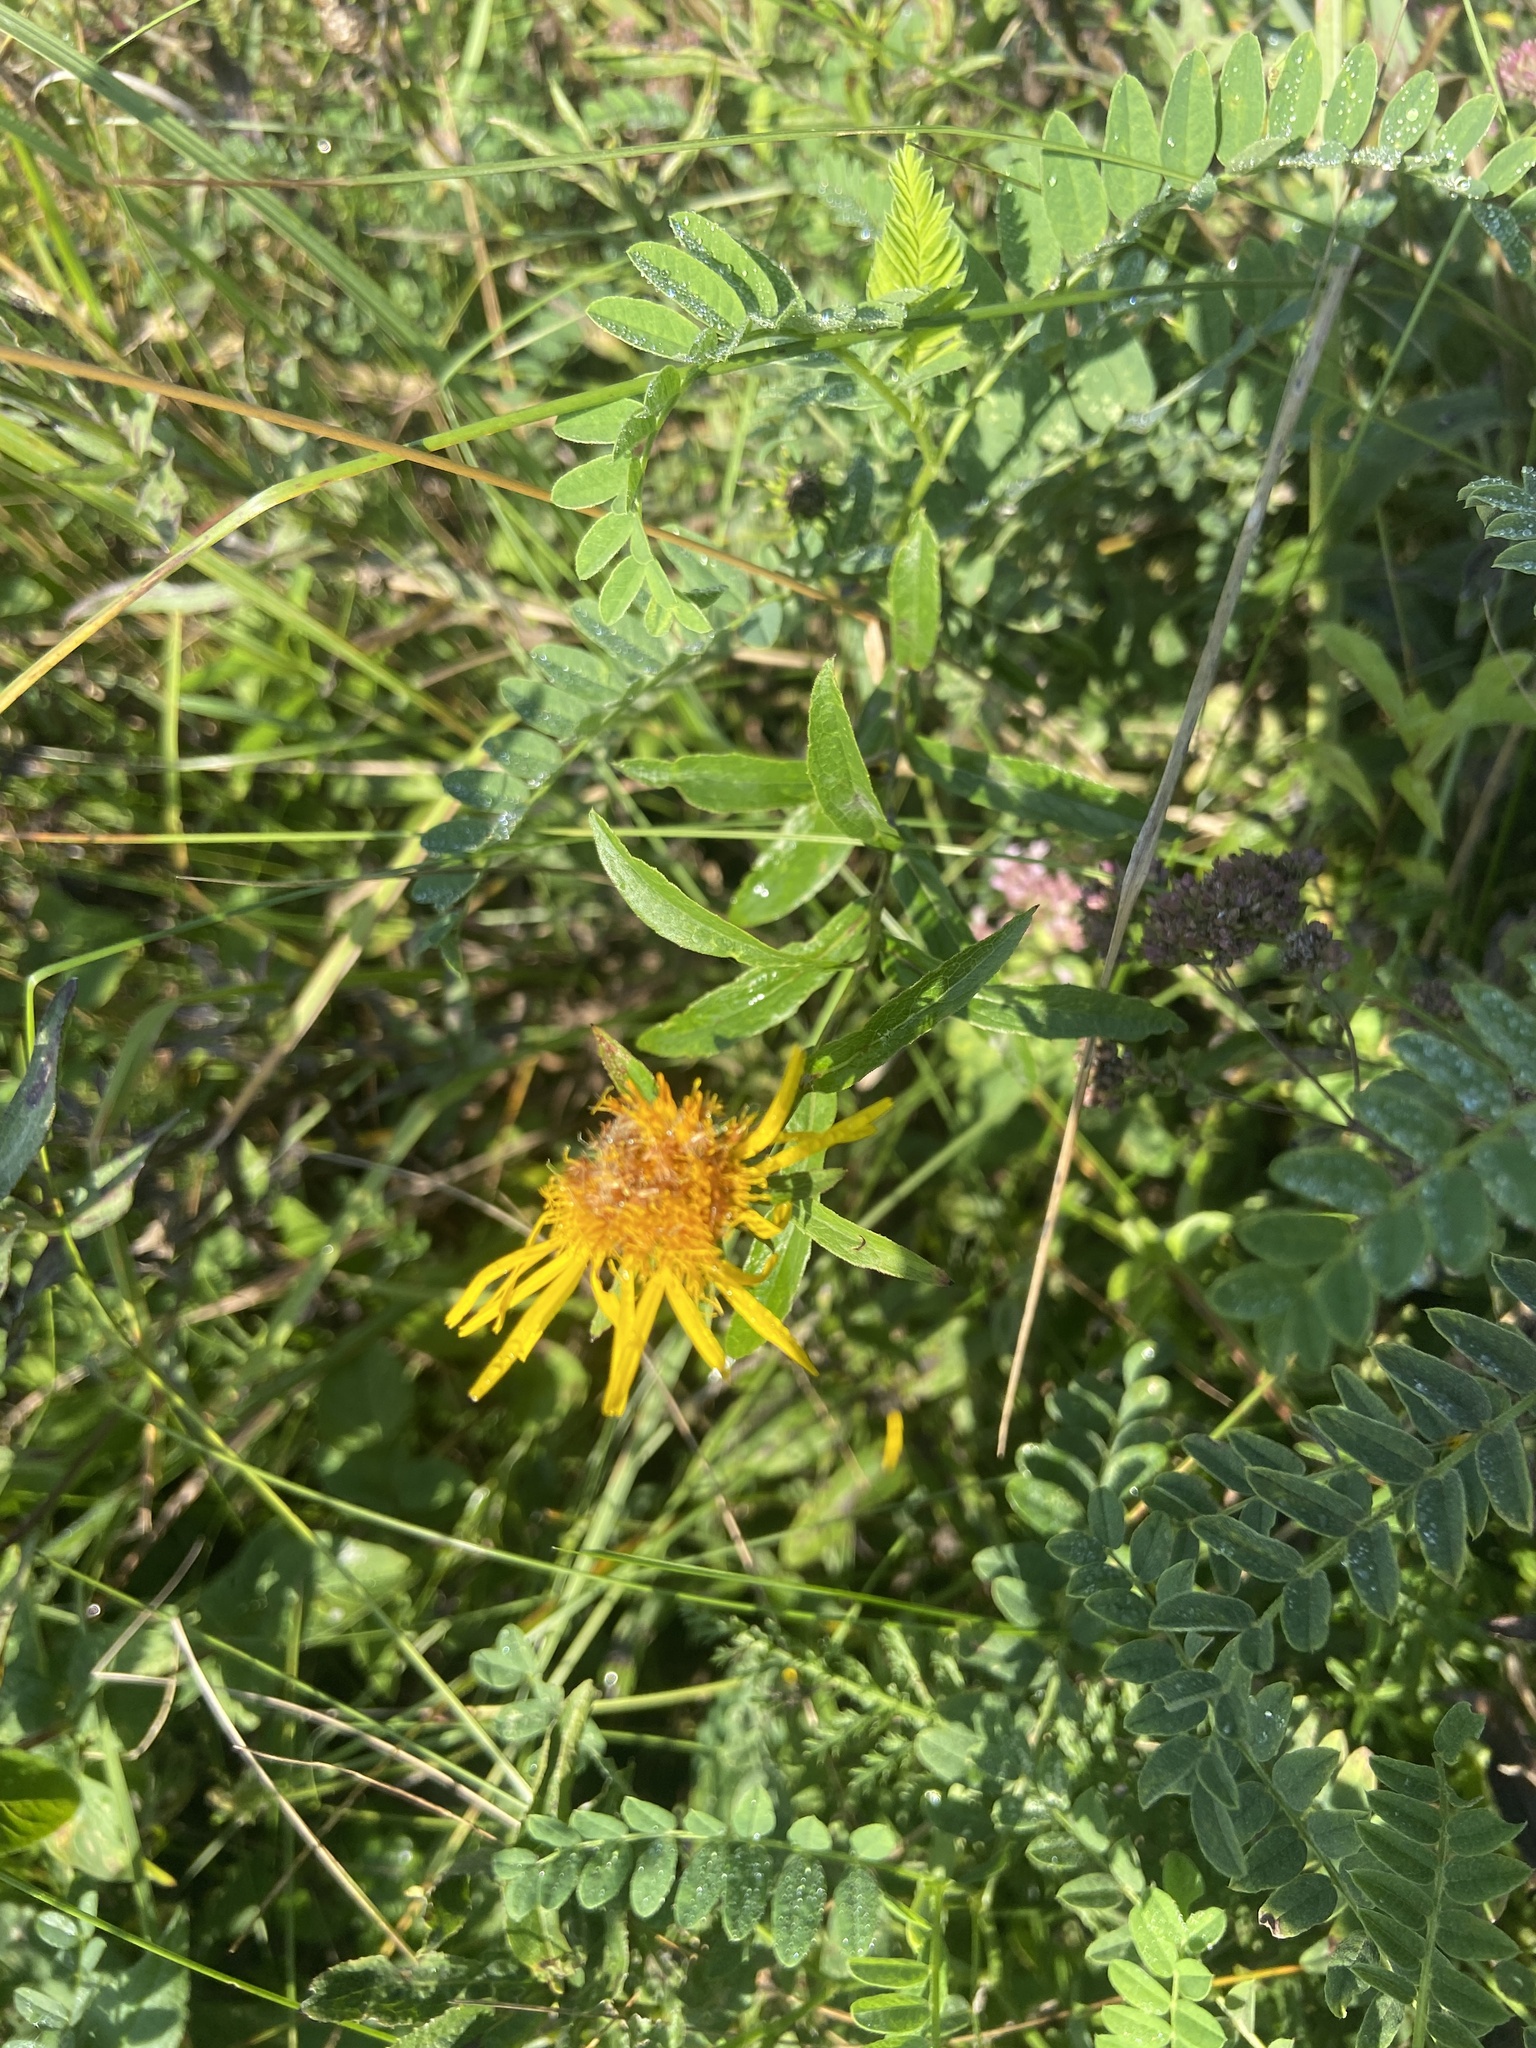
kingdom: Plantae
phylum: Tracheophyta
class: Magnoliopsida
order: Asterales
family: Asteraceae
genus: Pentanema
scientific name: Pentanema salicinum
